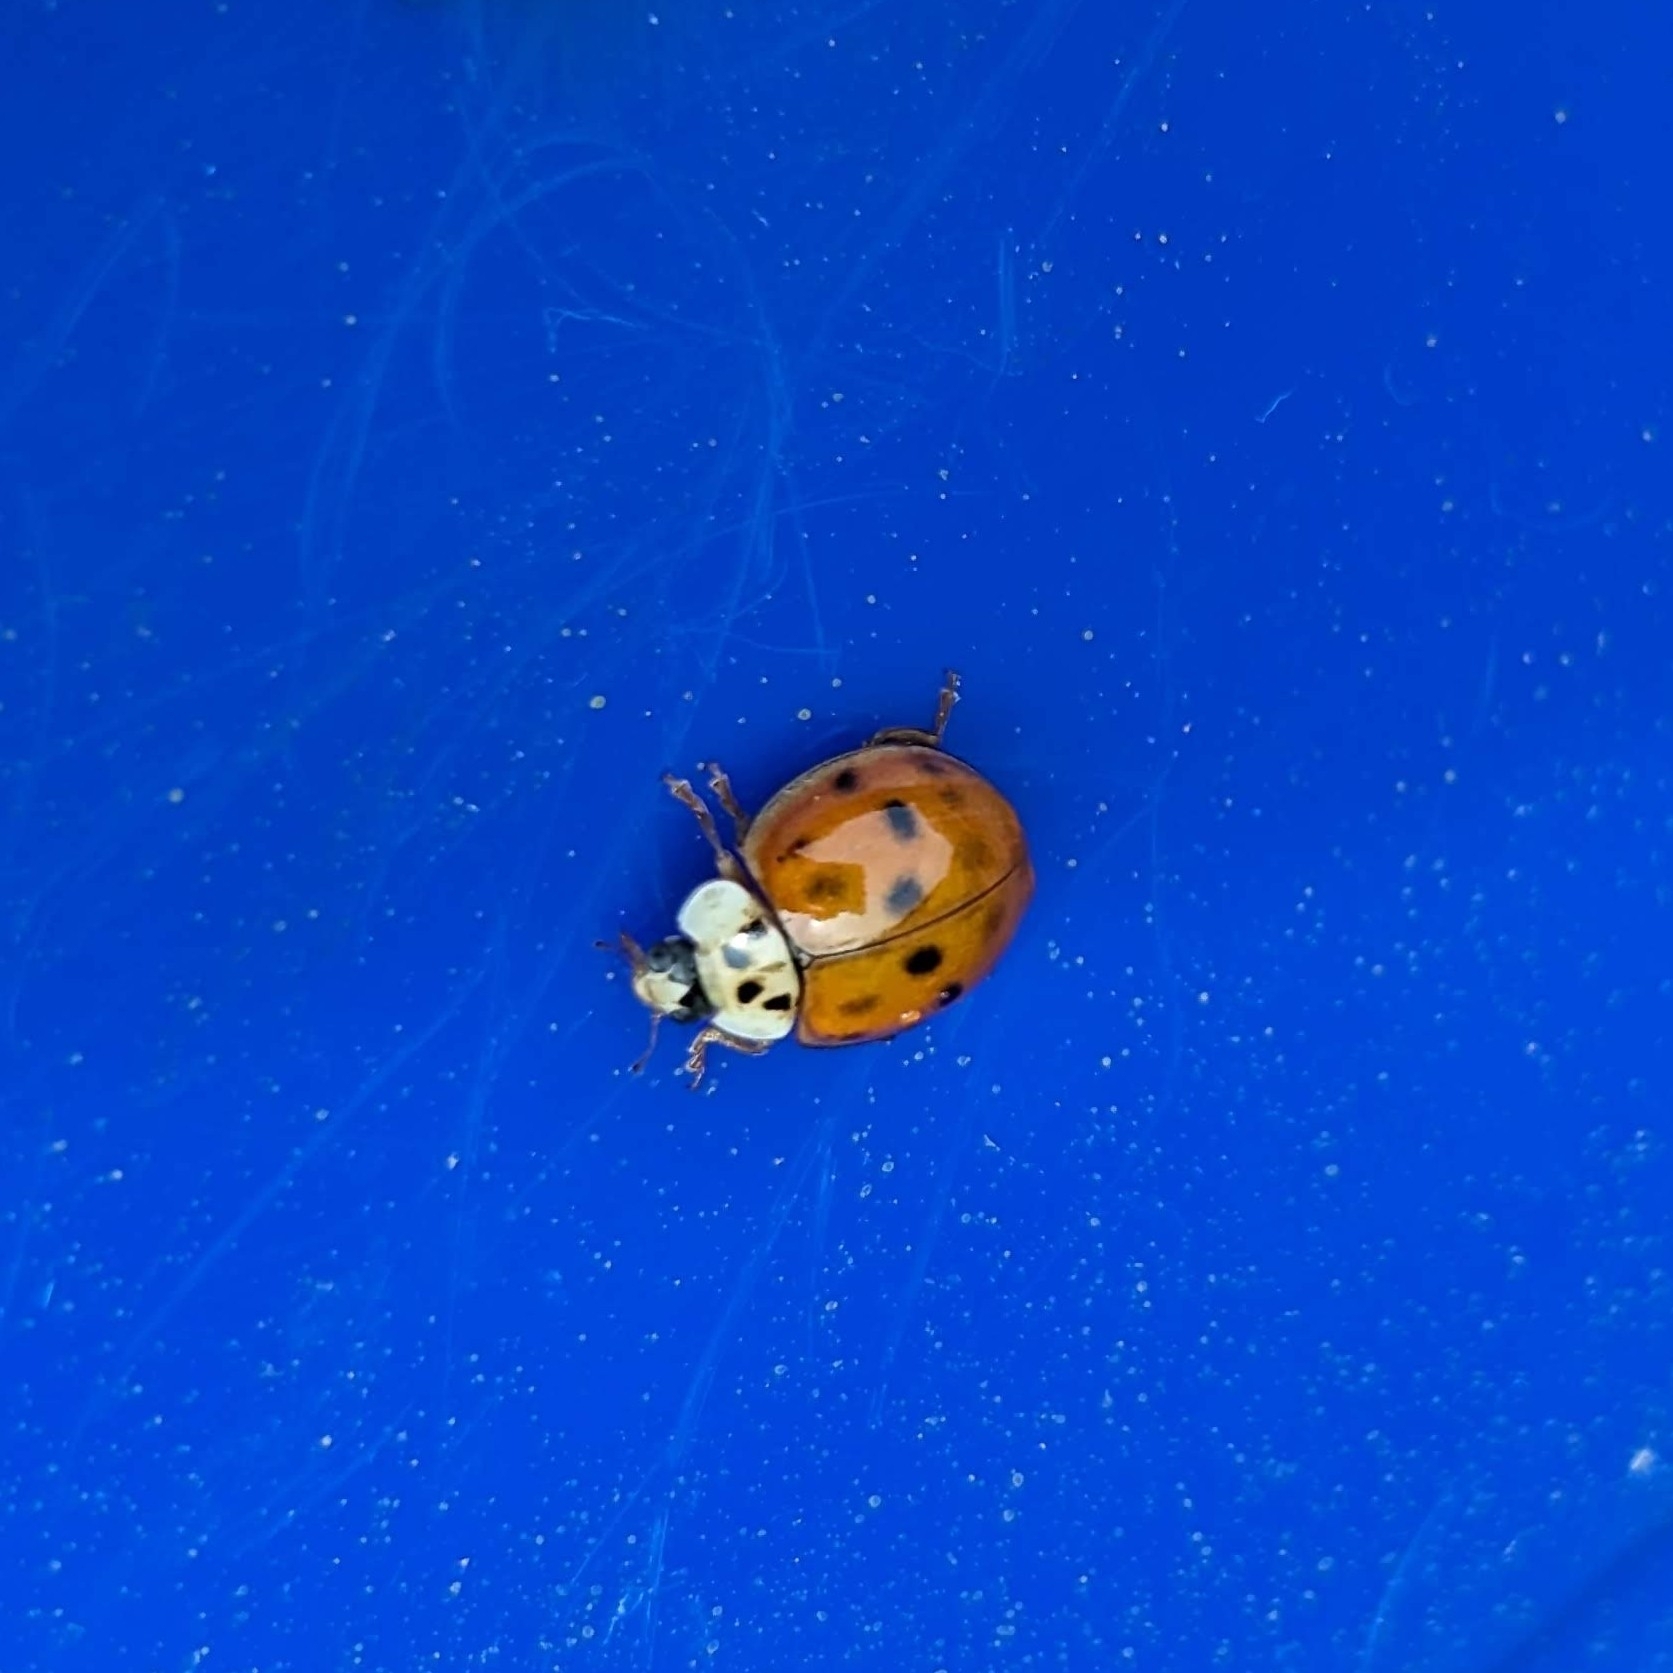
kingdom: Animalia
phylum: Arthropoda
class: Insecta
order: Coleoptera
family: Coccinellidae
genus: Harmonia
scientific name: Harmonia axyridis
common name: Harlequin ladybird
